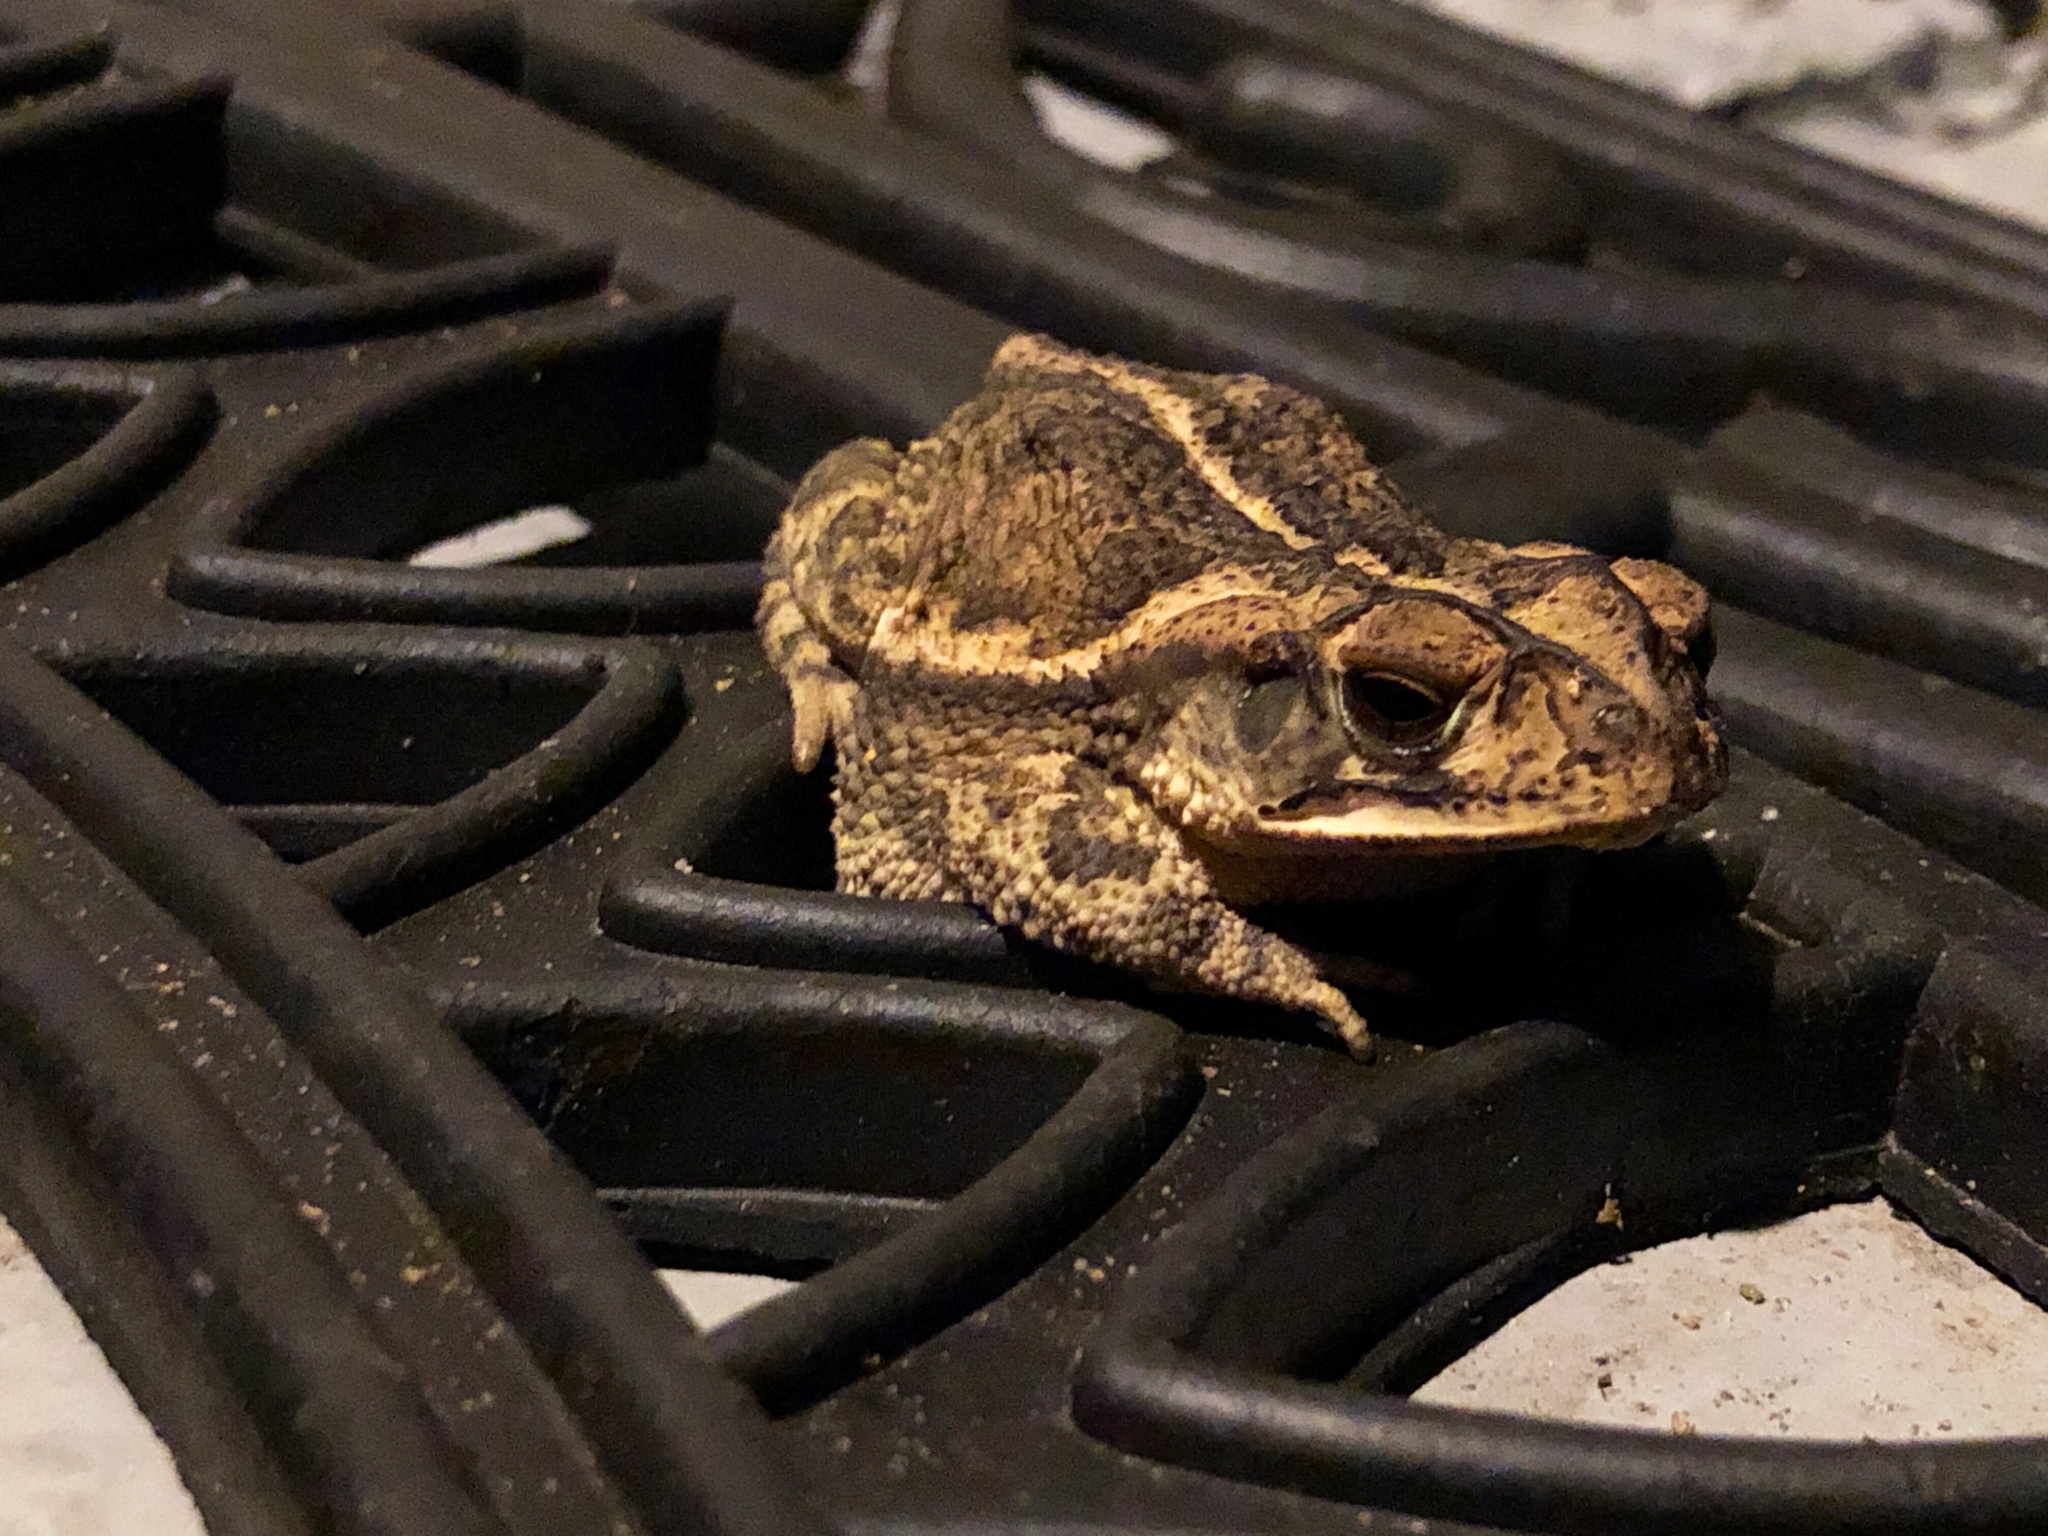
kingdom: Animalia
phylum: Chordata
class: Amphibia
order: Anura
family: Bufonidae
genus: Incilius
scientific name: Incilius nebulifer
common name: Gulf coast toad
